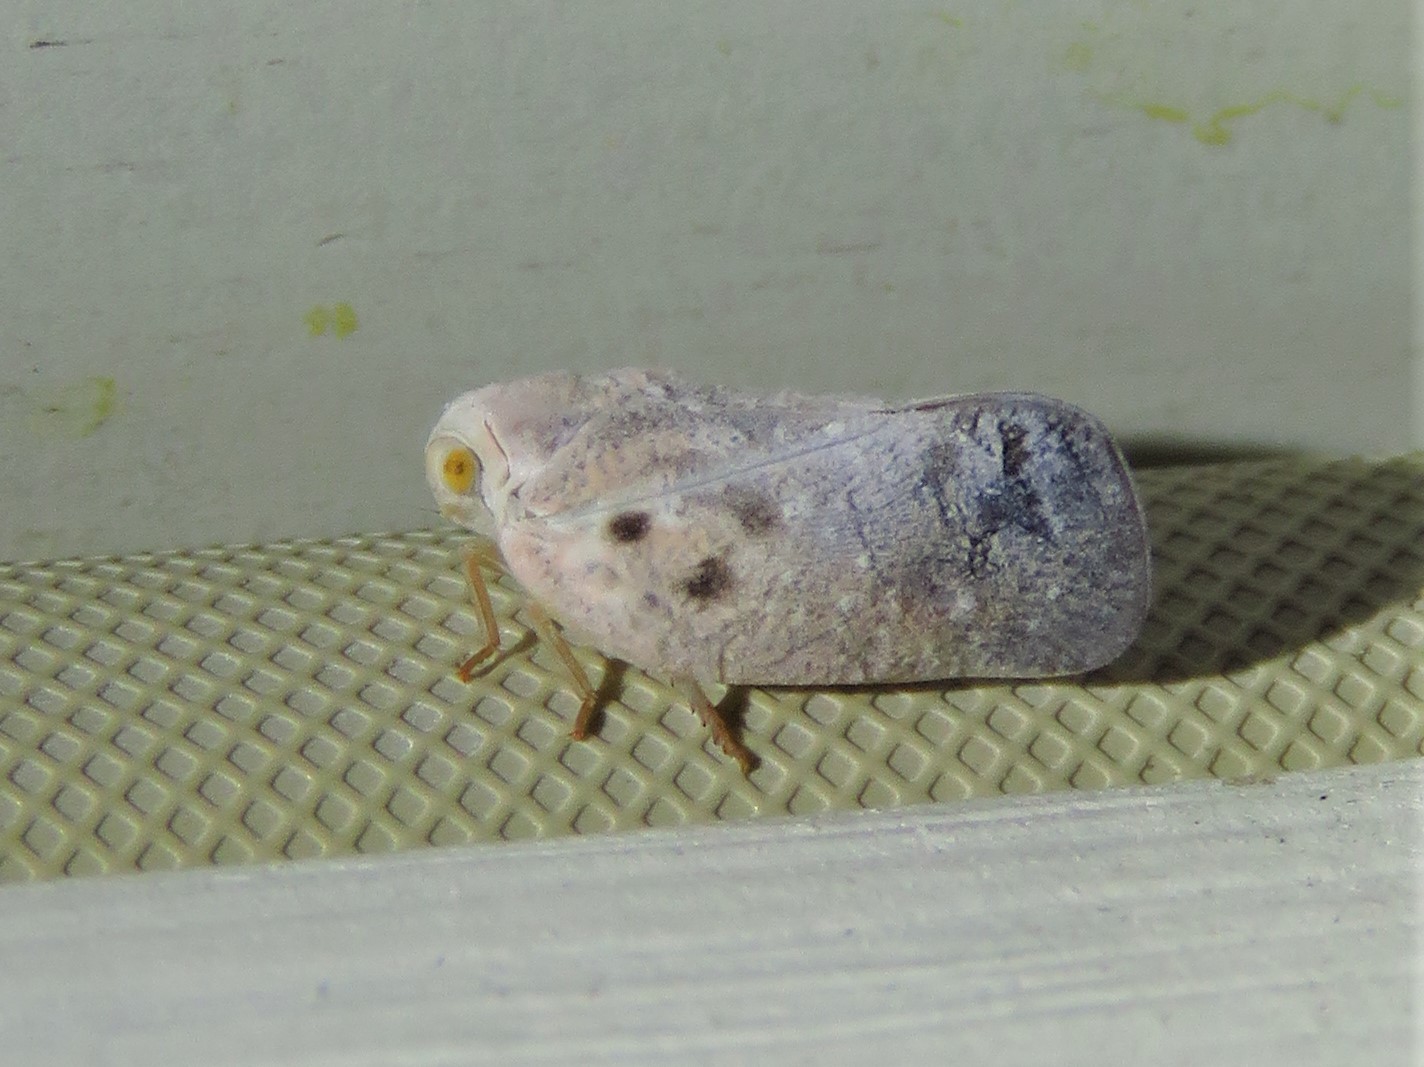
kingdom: Animalia
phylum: Arthropoda
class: Insecta
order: Hemiptera
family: Flatidae
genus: Metcalfa
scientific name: Metcalfa pruinosa
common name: Citrus flatid planthopper
